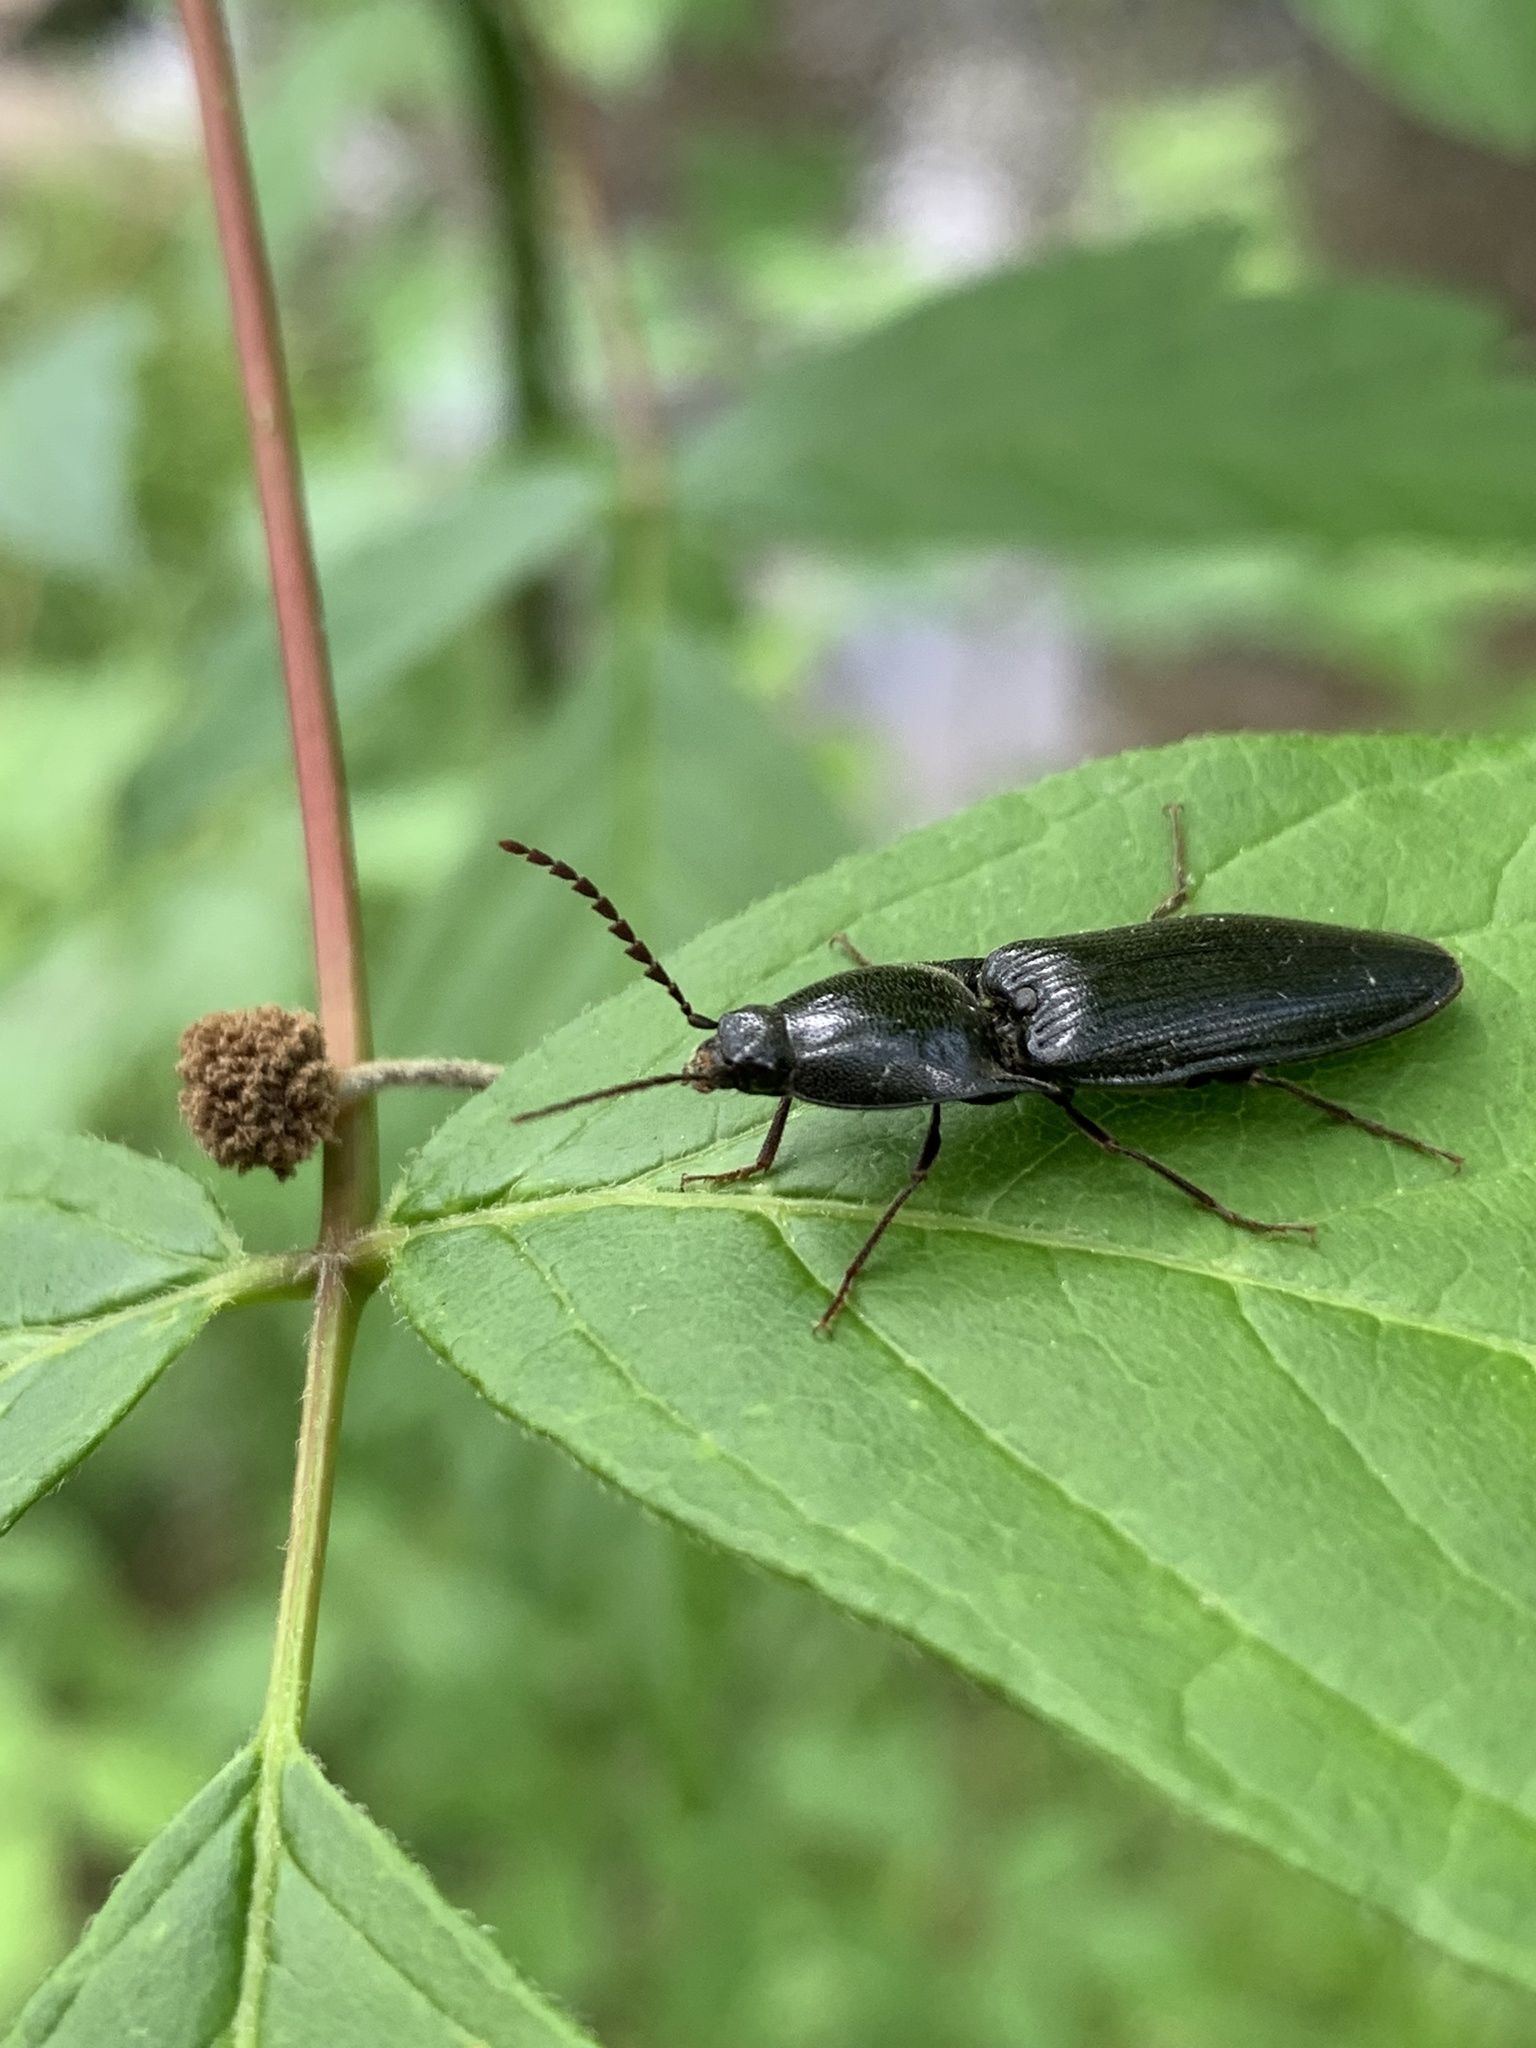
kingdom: Animalia
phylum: Arthropoda
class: Insecta
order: Coleoptera
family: Elateridae
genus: Neopristilophus
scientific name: Neopristilophus
